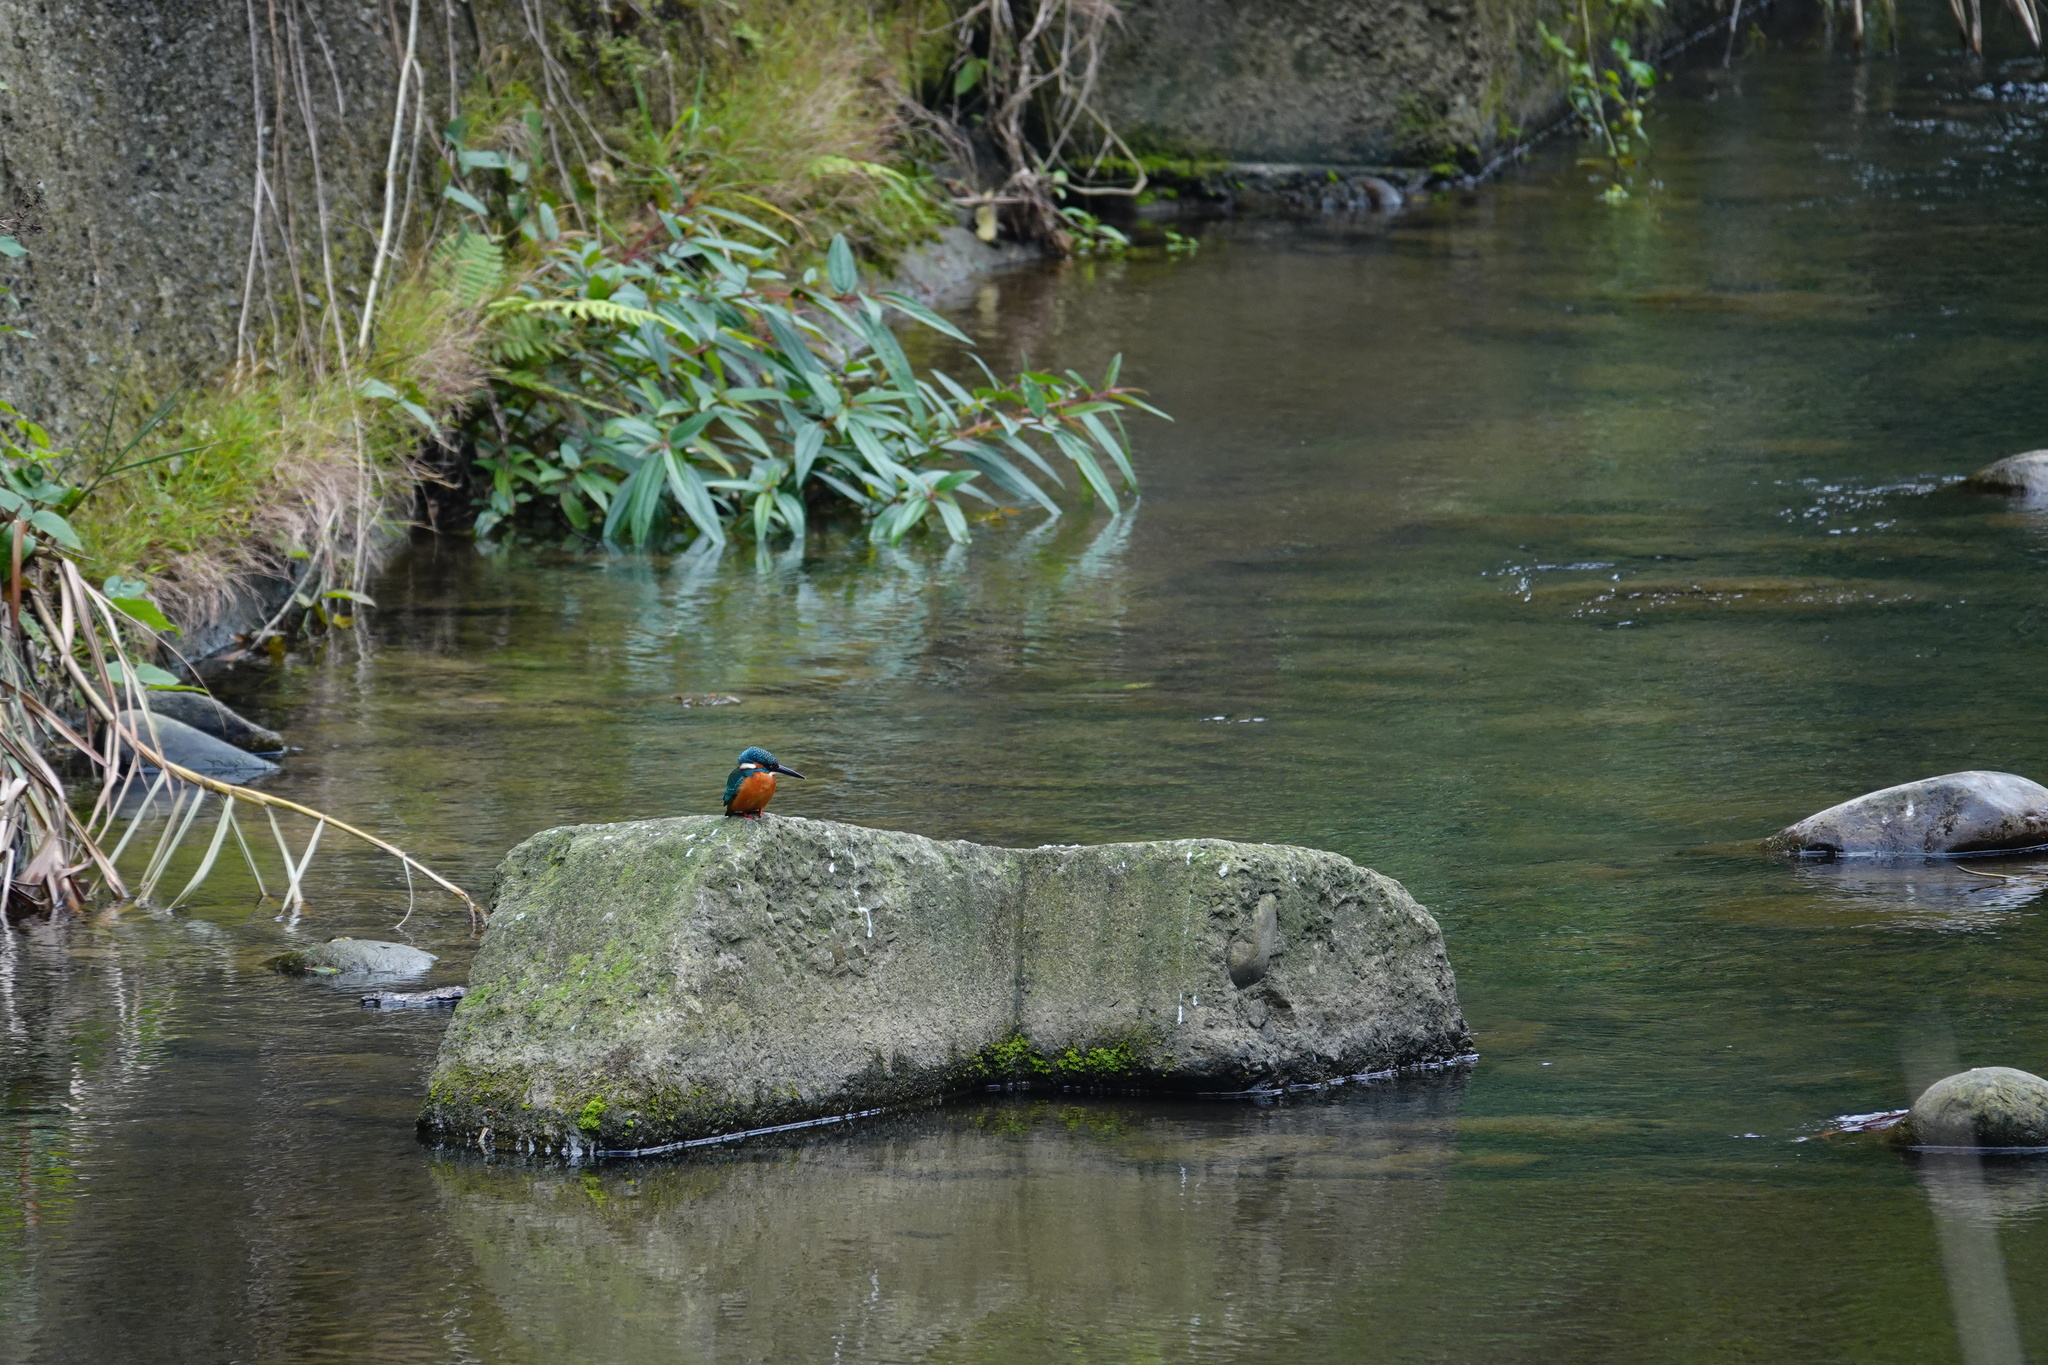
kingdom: Animalia
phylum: Chordata
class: Aves
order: Coraciiformes
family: Alcedinidae
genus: Alcedo
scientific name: Alcedo atthis
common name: Common kingfisher
